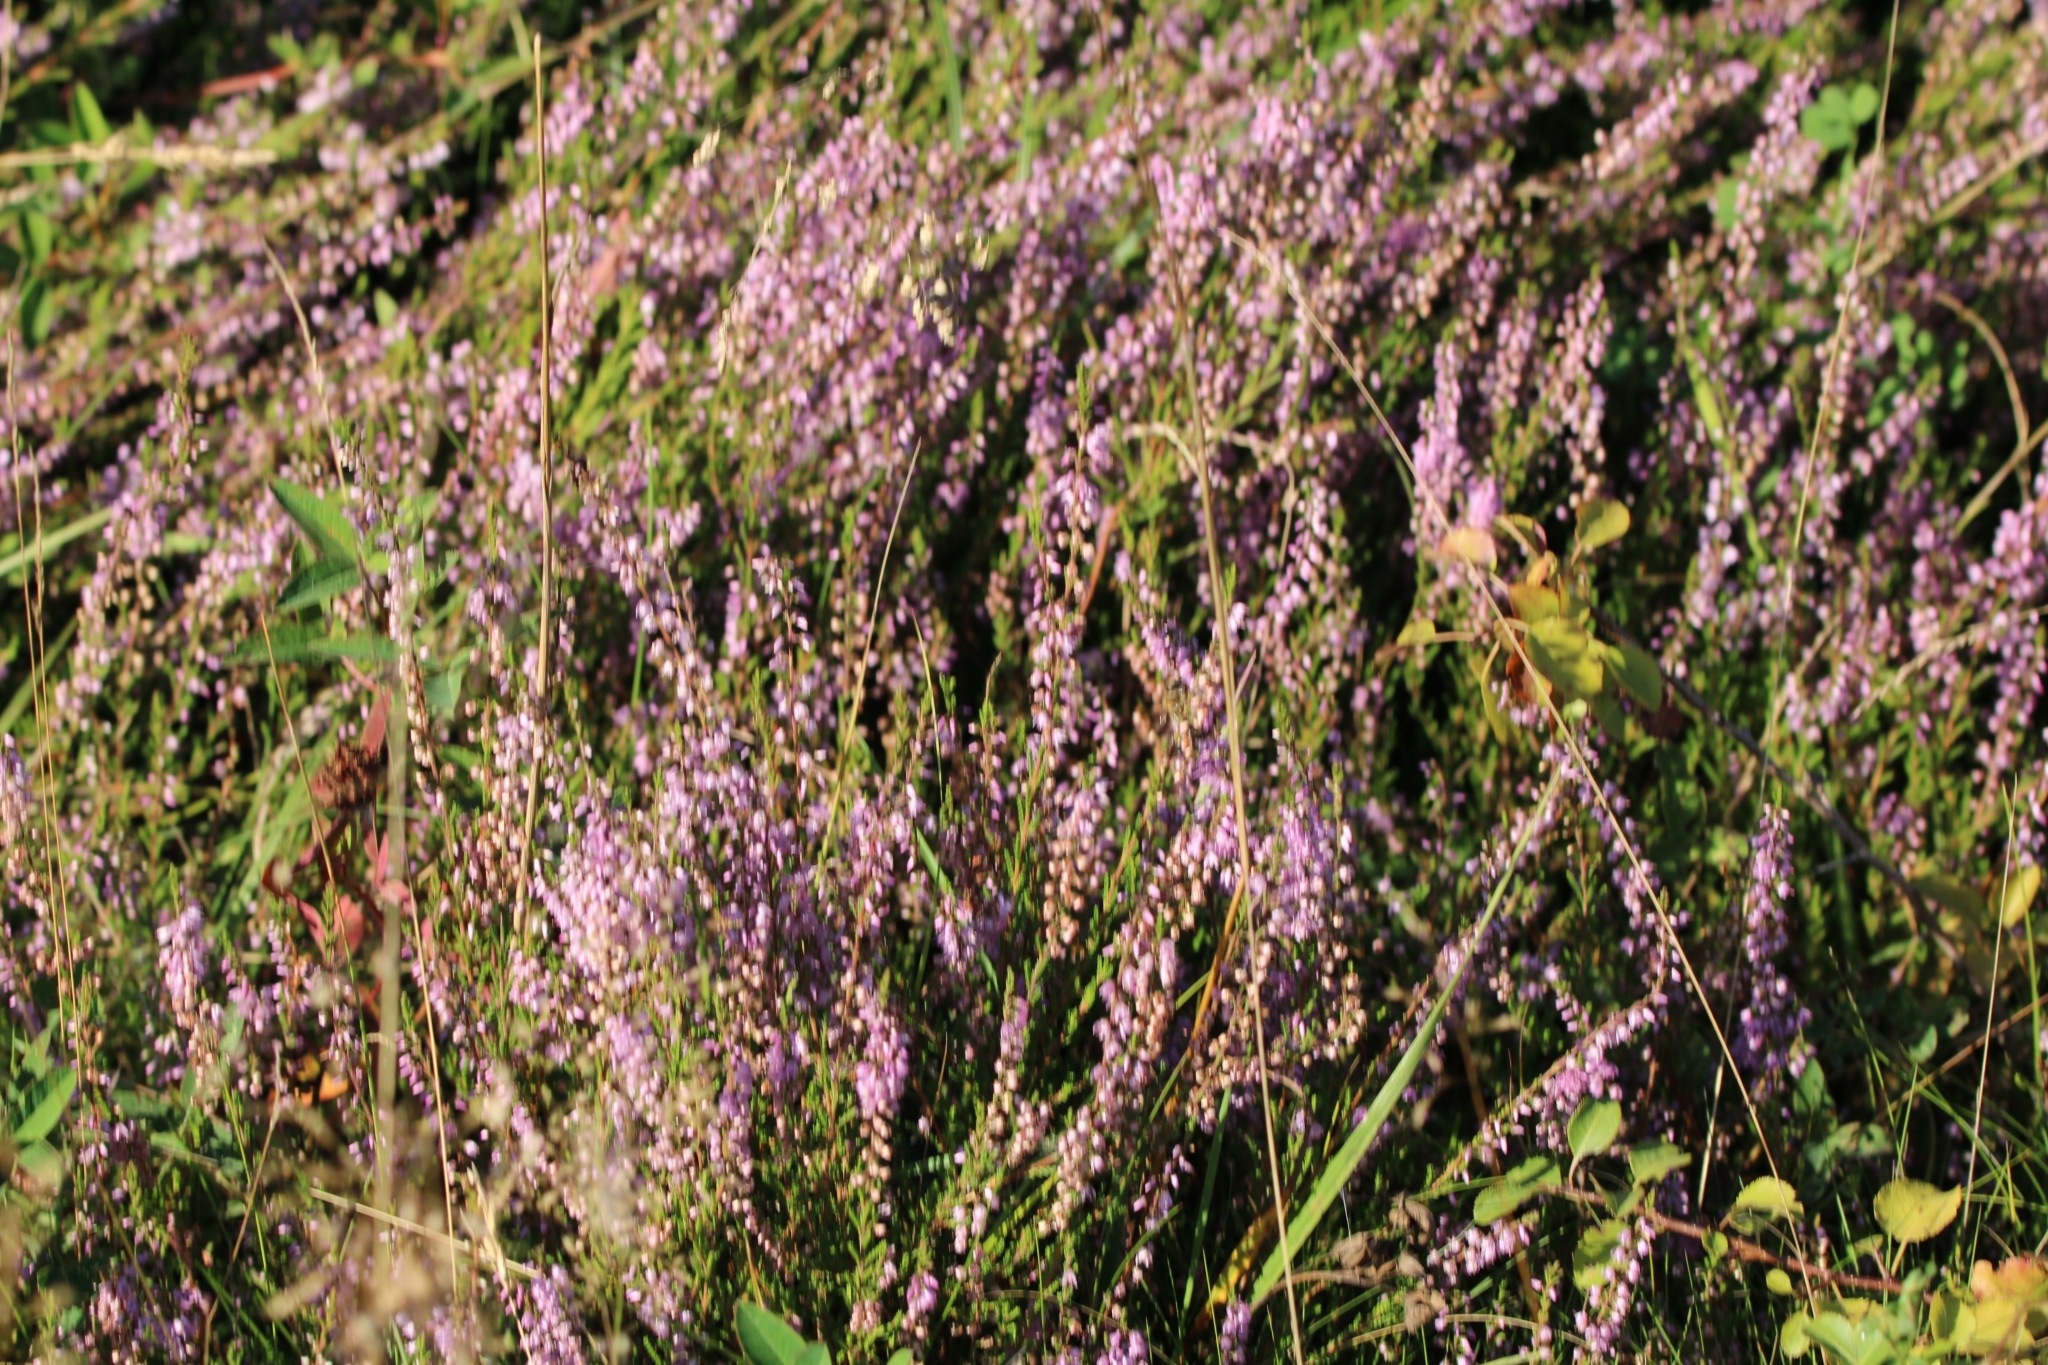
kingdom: Plantae
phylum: Tracheophyta
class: Magnoliopsida
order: Ericales
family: Ericaceae
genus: Calluna
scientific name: Calluna vulgaris
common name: Heather
